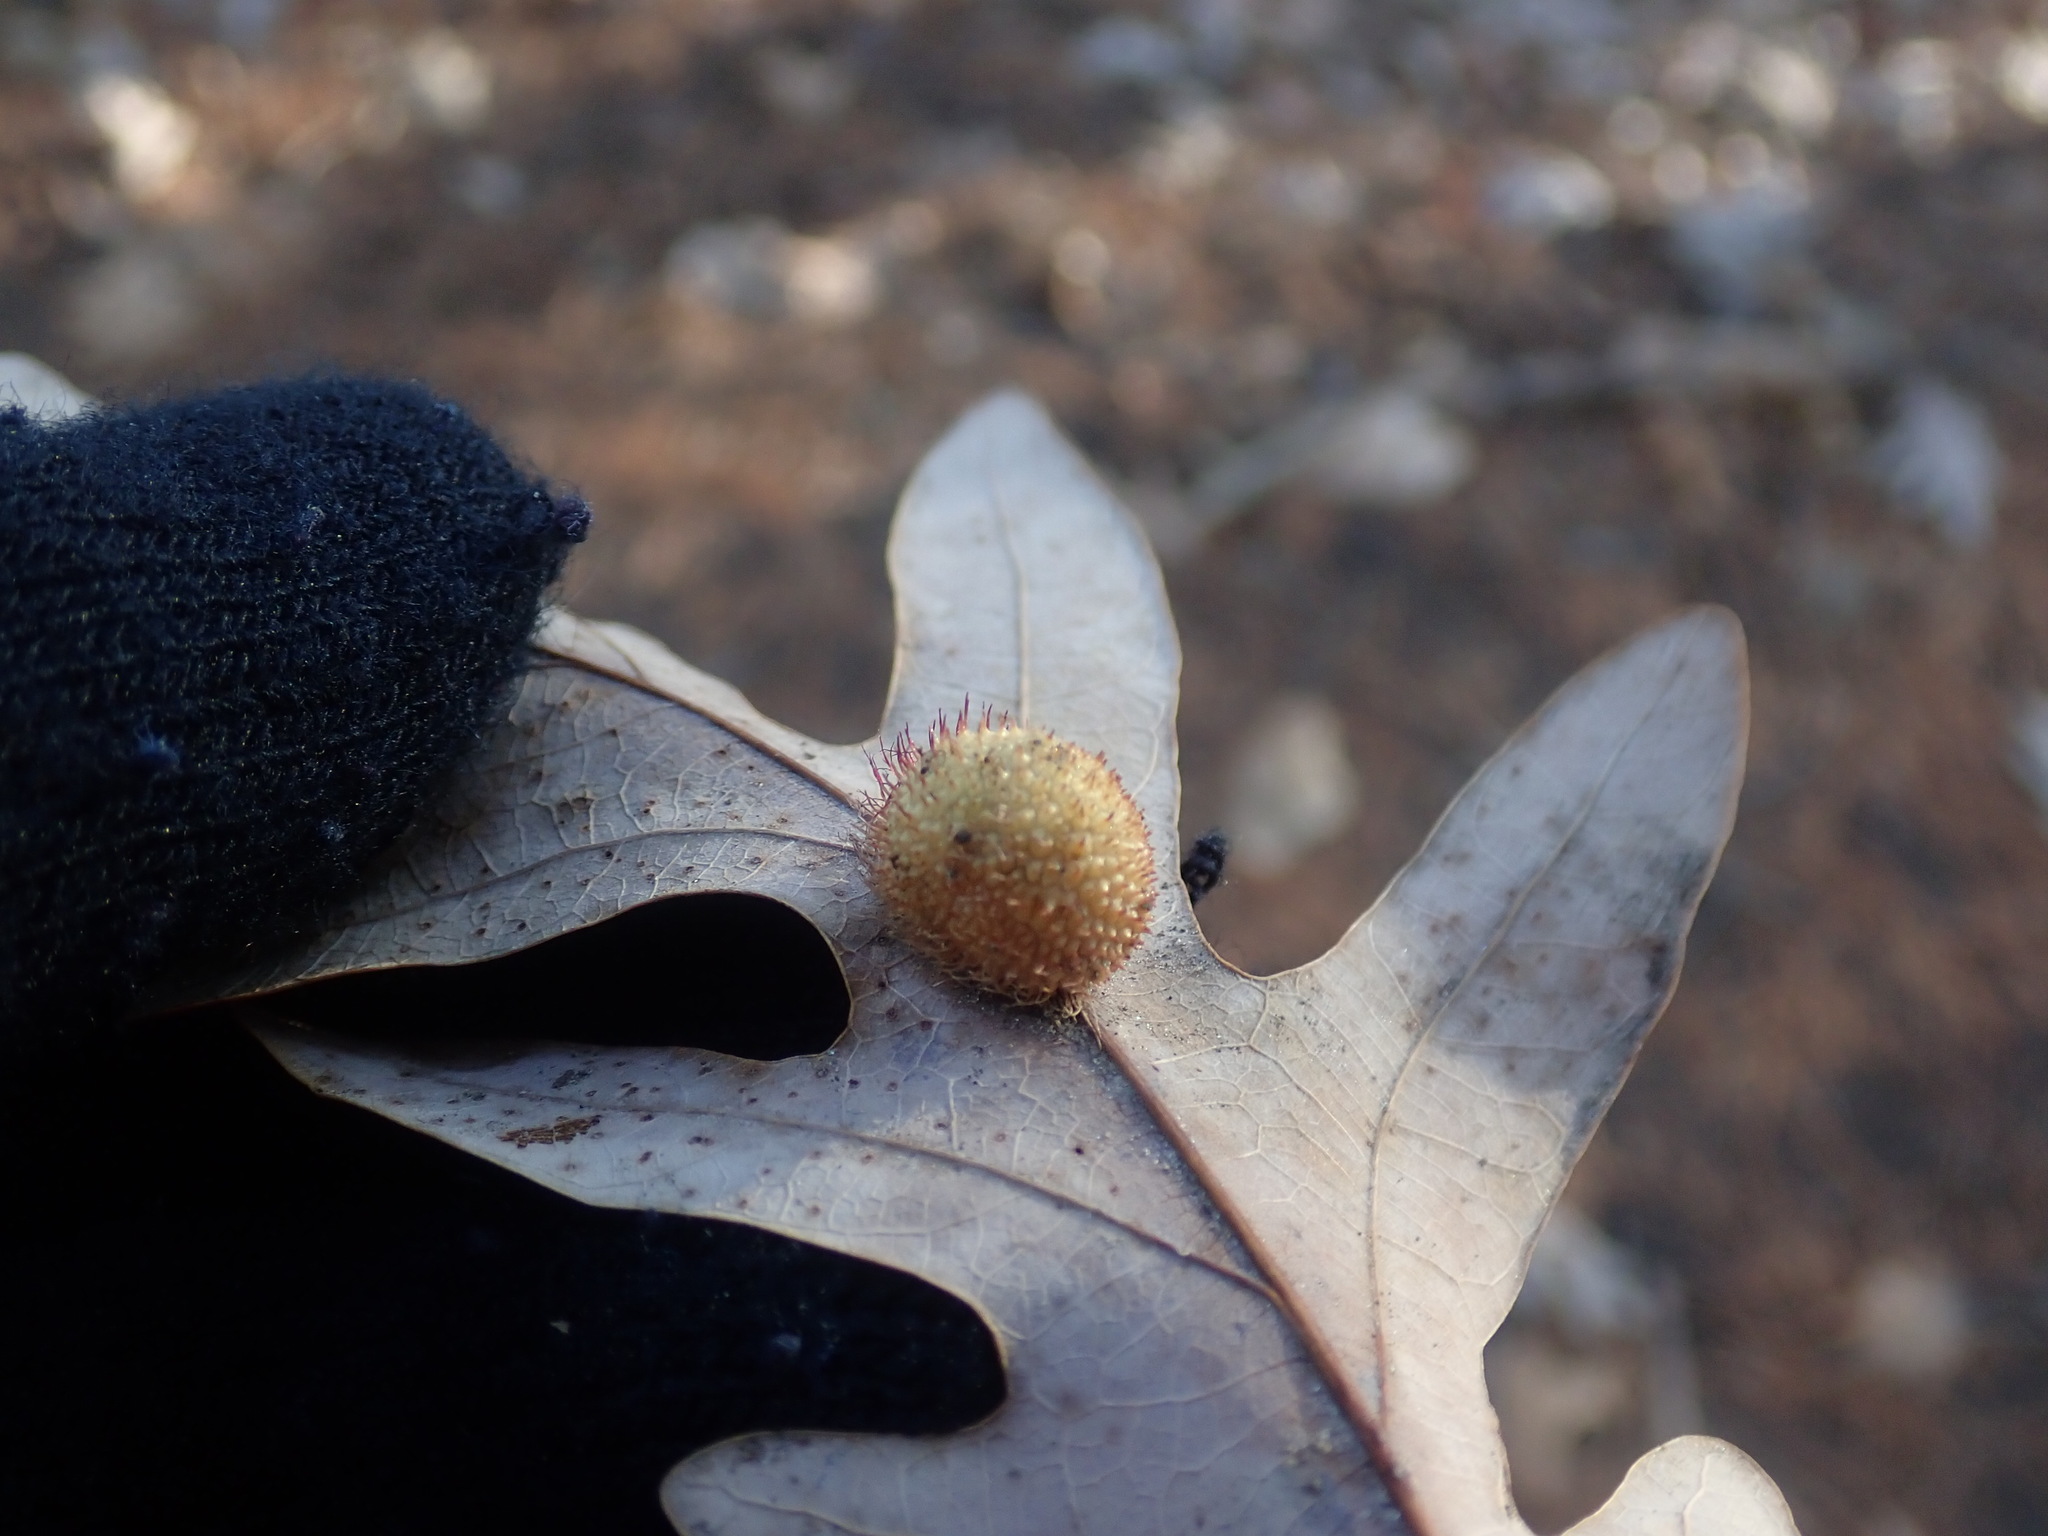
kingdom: Animalia
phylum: Arthropoda
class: Insecta
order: Hymenoptera
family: Cynipidae
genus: Acraspis
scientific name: Acraspis erinacei
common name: Hedgehog gall wasp
